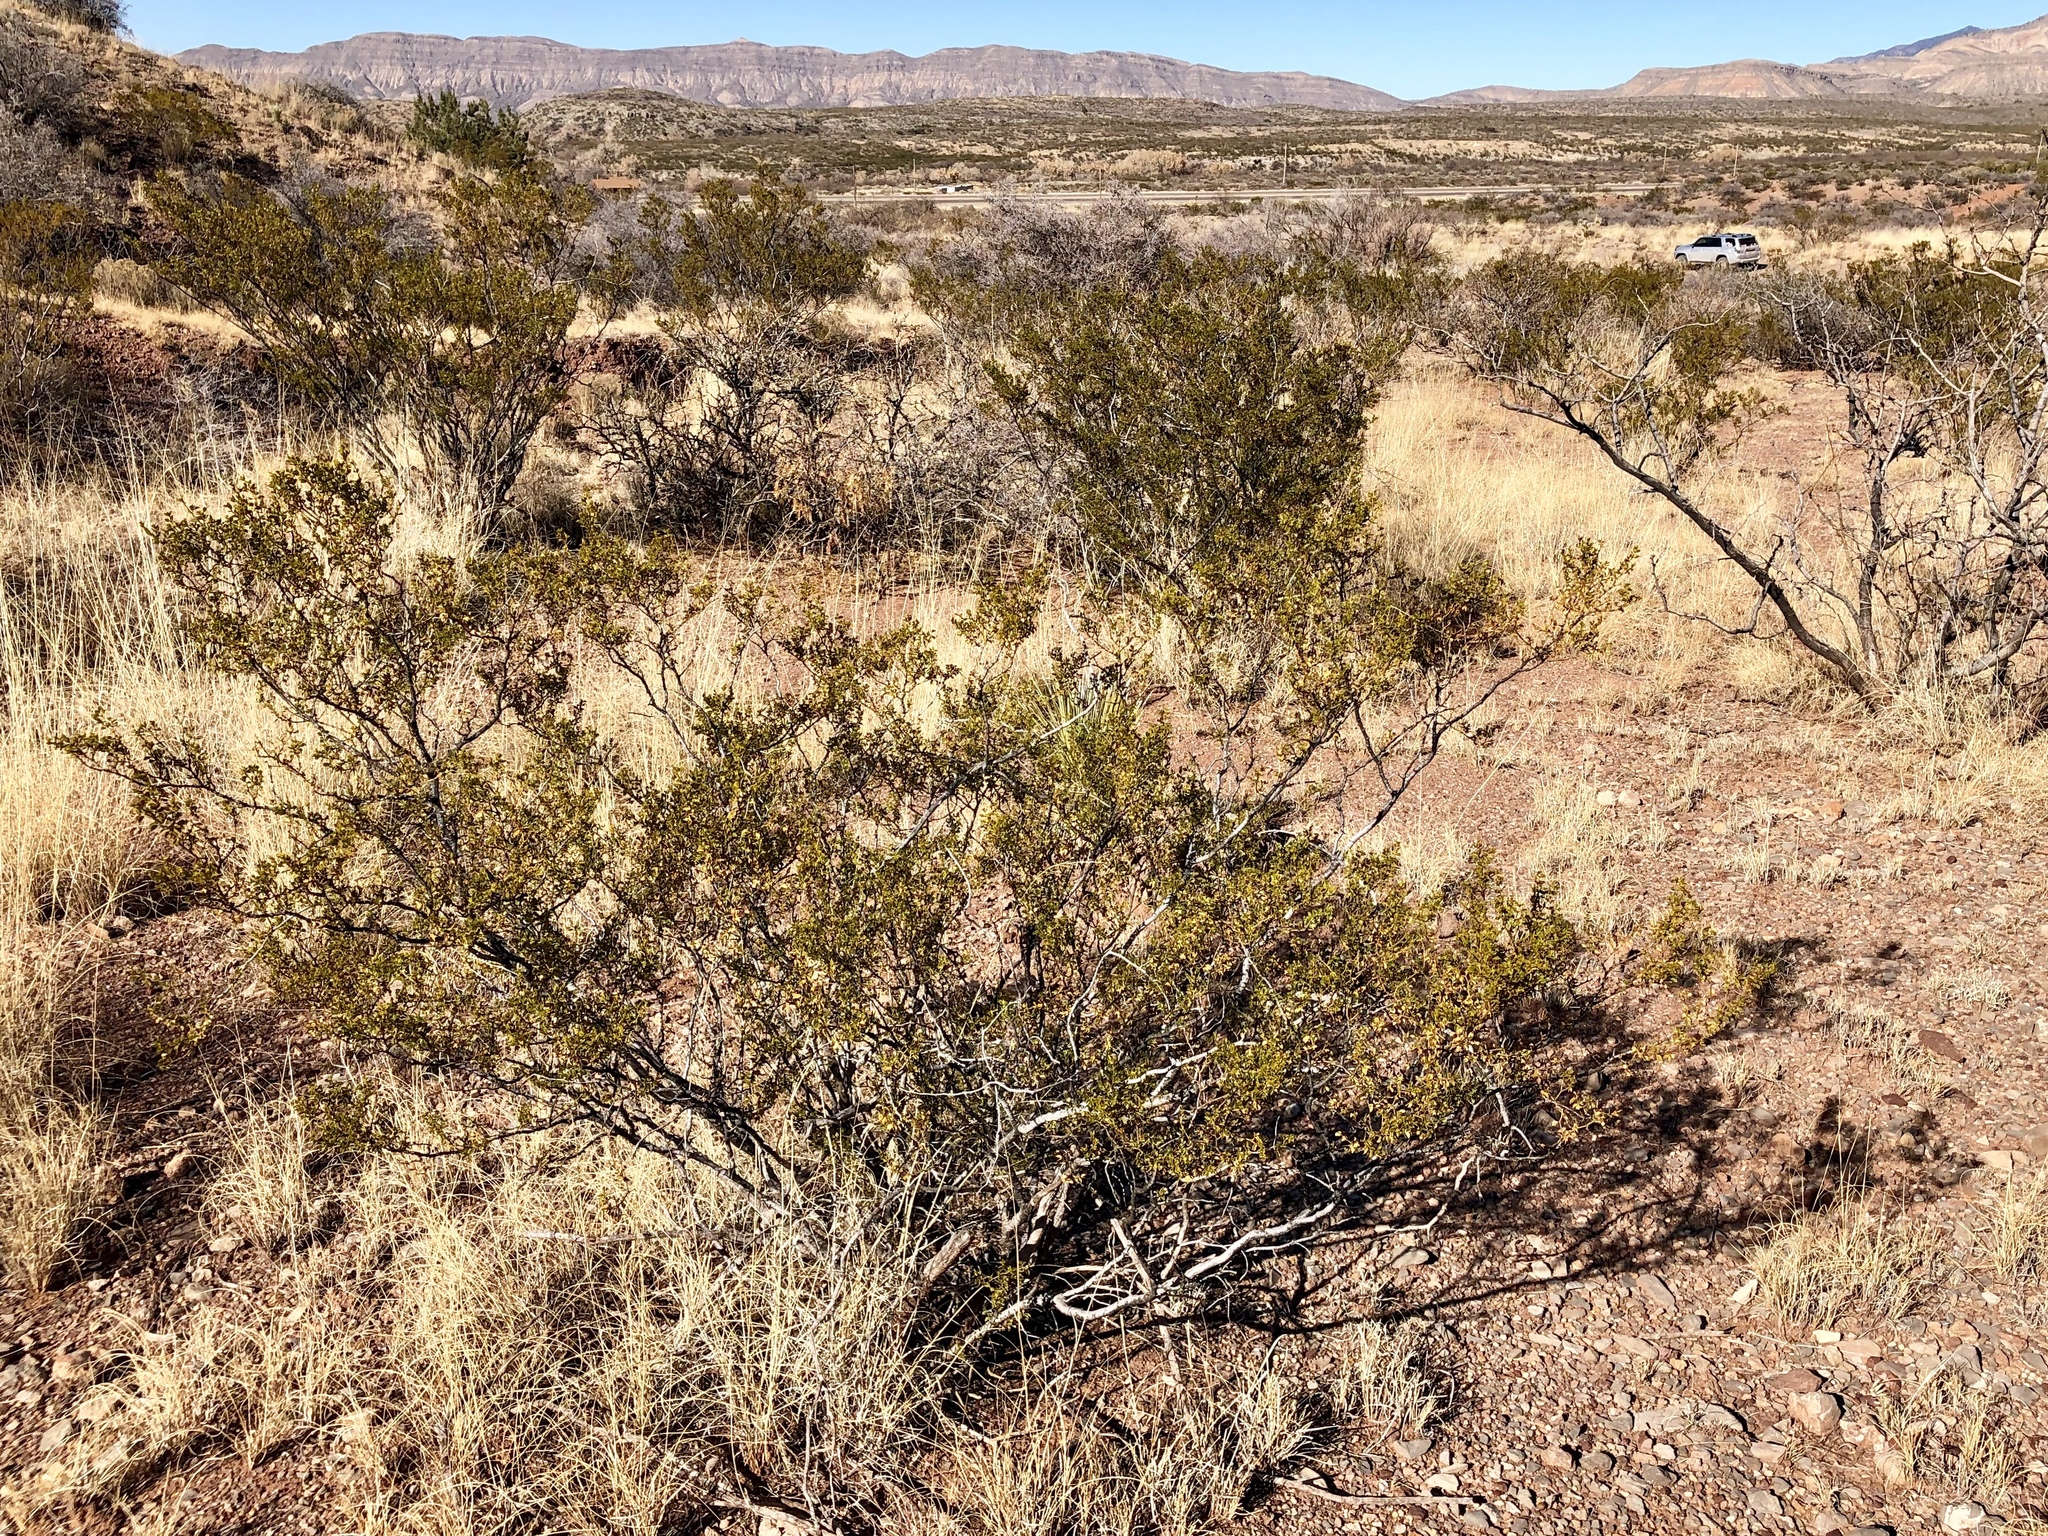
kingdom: Plantae
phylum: Tracheophyta
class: Magnoliopsida
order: Zygophyllales
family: Zygophyllaceae
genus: Larrea
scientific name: Larrea tridentata
